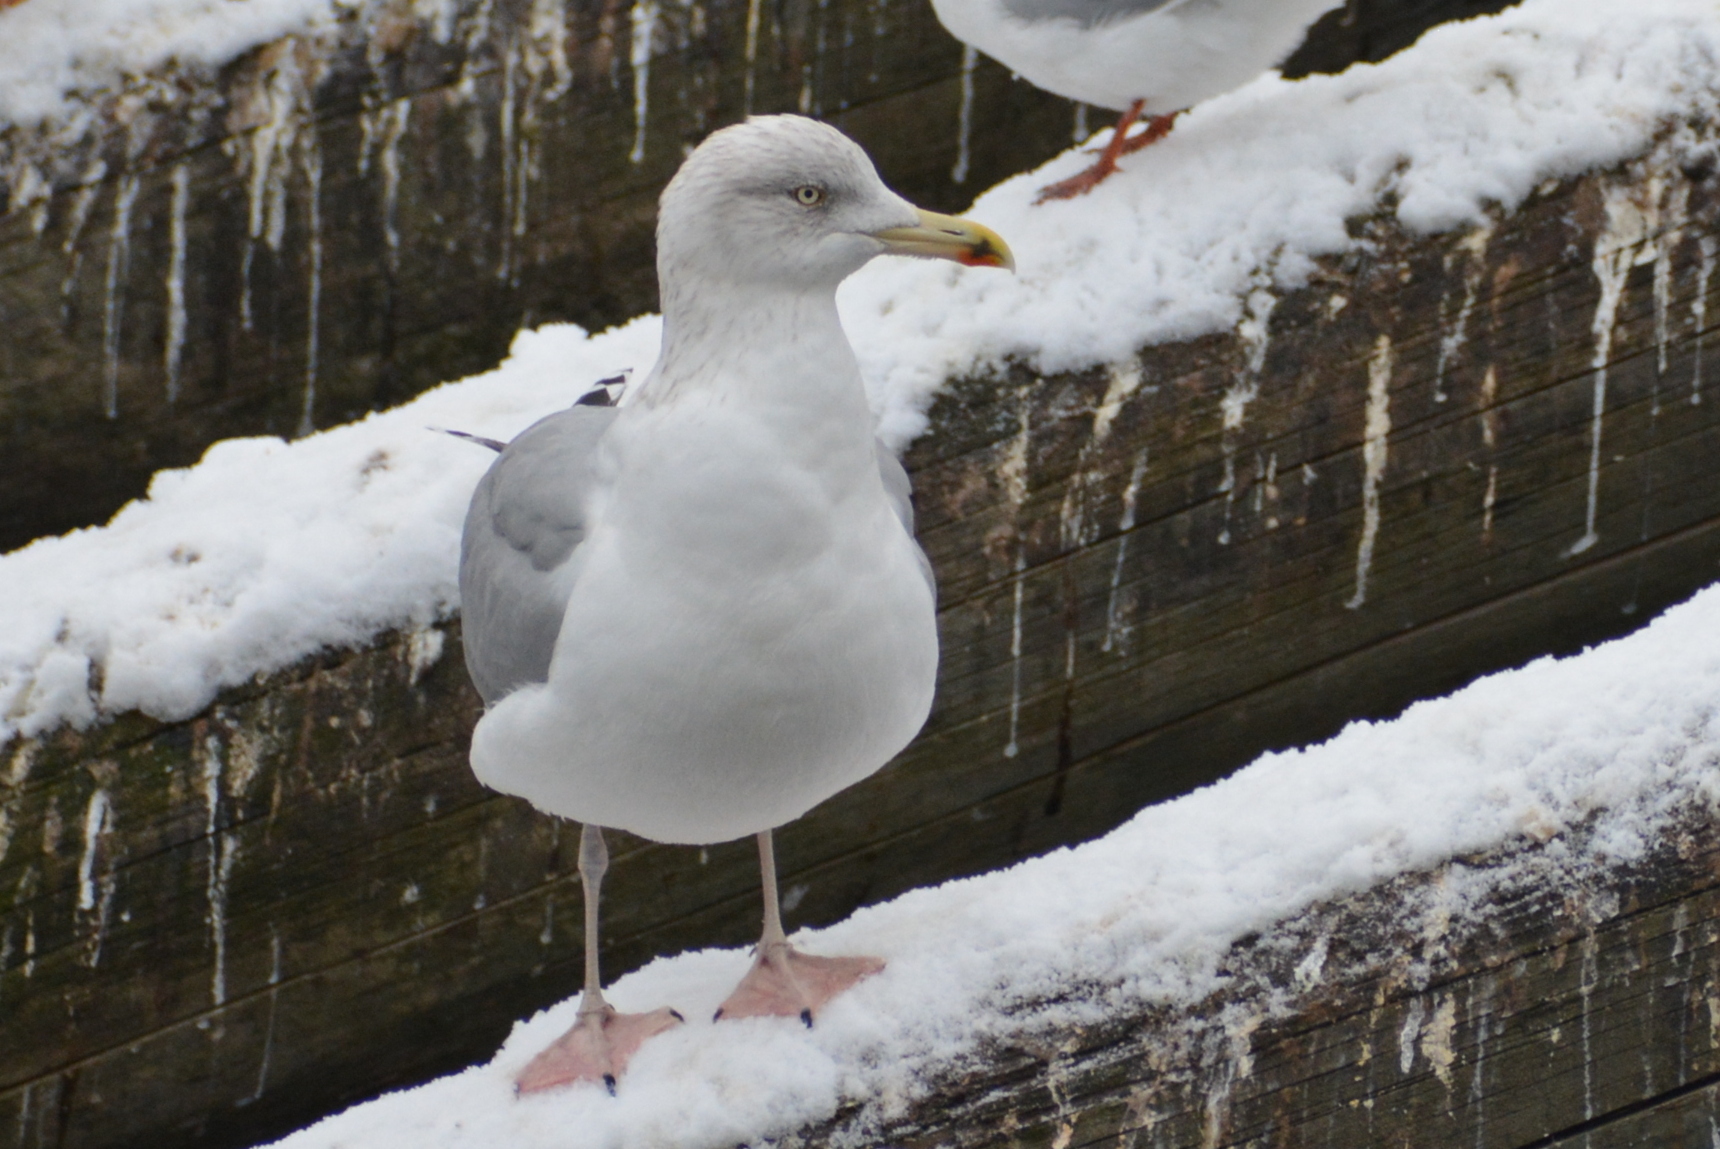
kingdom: Animalia
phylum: Chordata
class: Aves
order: Charadriiformes
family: Laridae
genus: Larus
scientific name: Larus argentatus
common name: Herring gull
